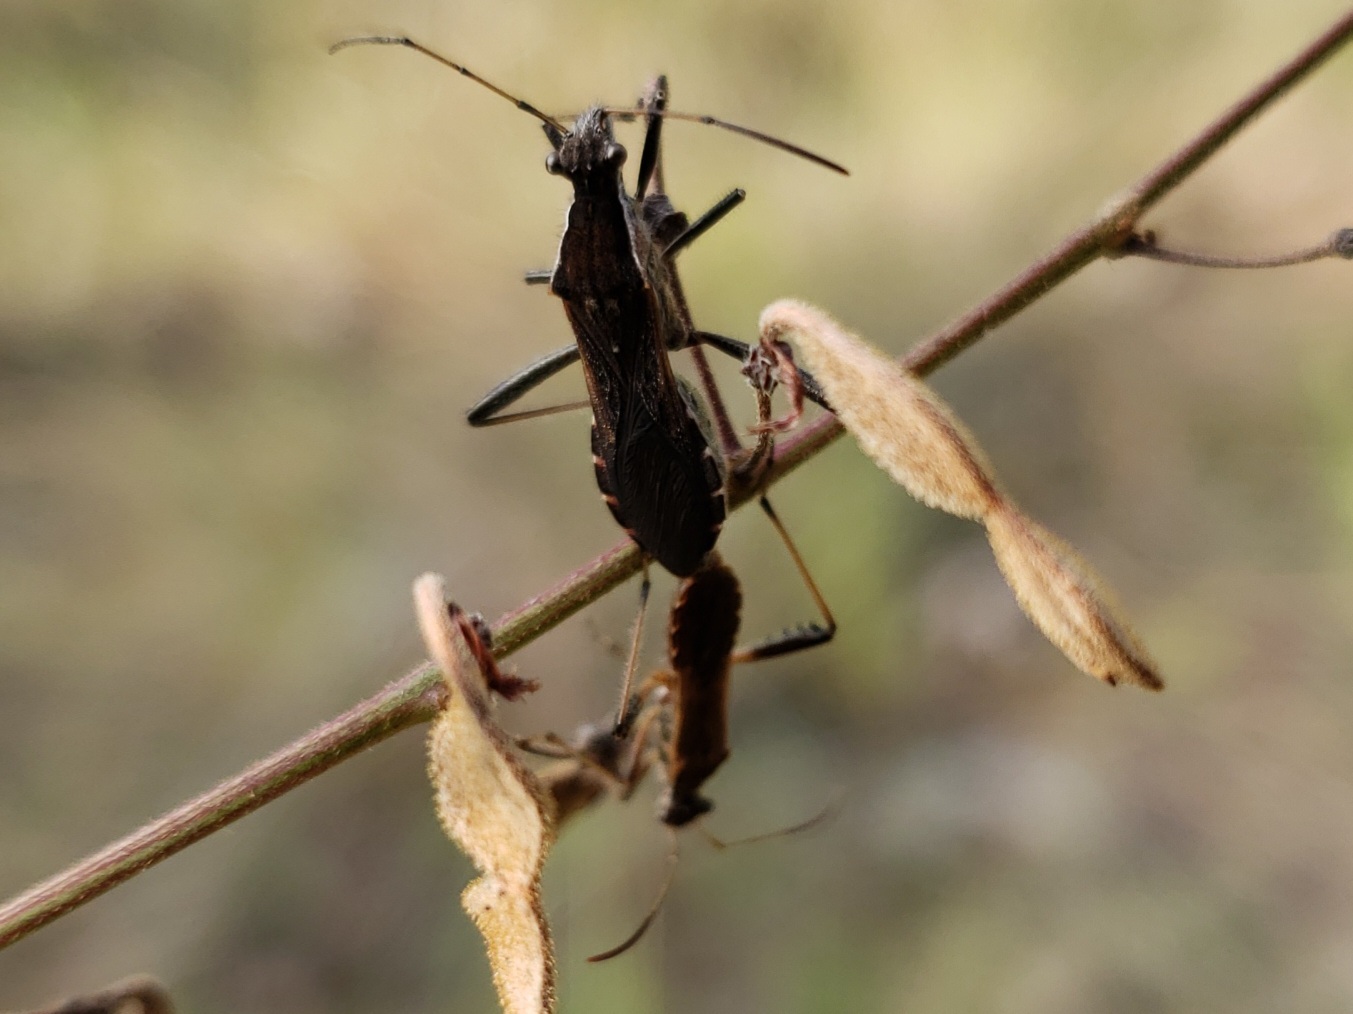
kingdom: Animalia
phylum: Arthropoda
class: Insecta
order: Hemiptera
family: Alydidae
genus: Alydus
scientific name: Alydus pilosulus
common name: Broad-headed bug
